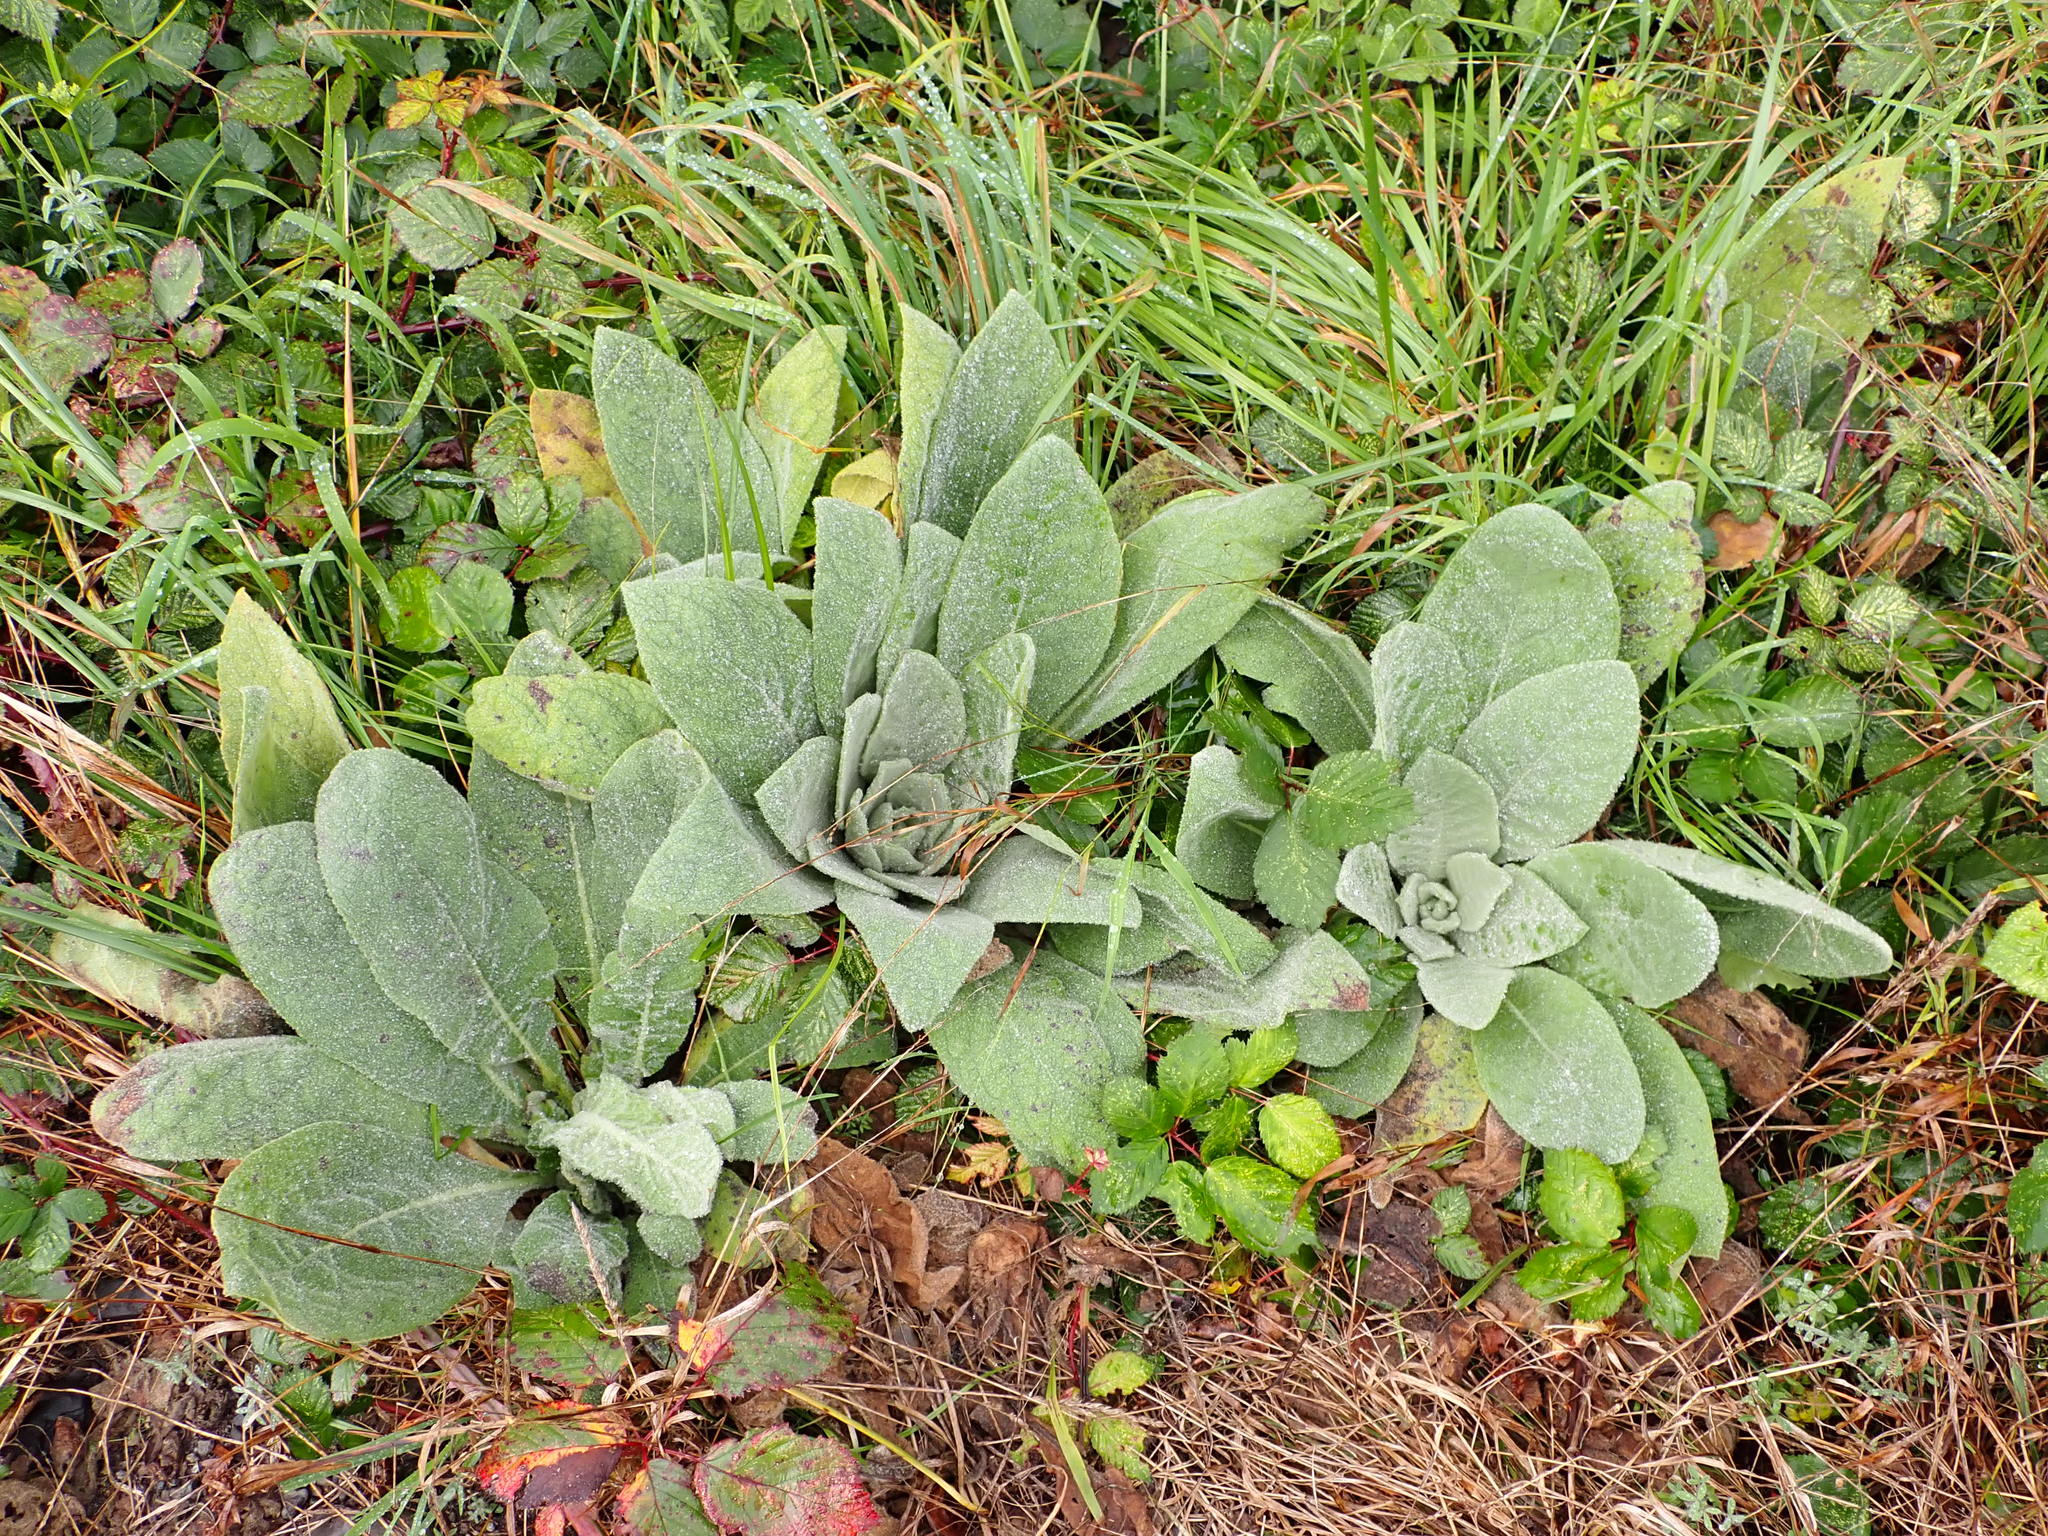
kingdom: Plantae
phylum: Tracheophyta
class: Magnoliopsida
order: Lamiales
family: Scrophulariaceae
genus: Verbascum
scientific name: Verbascum thapsus
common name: Common mullein
